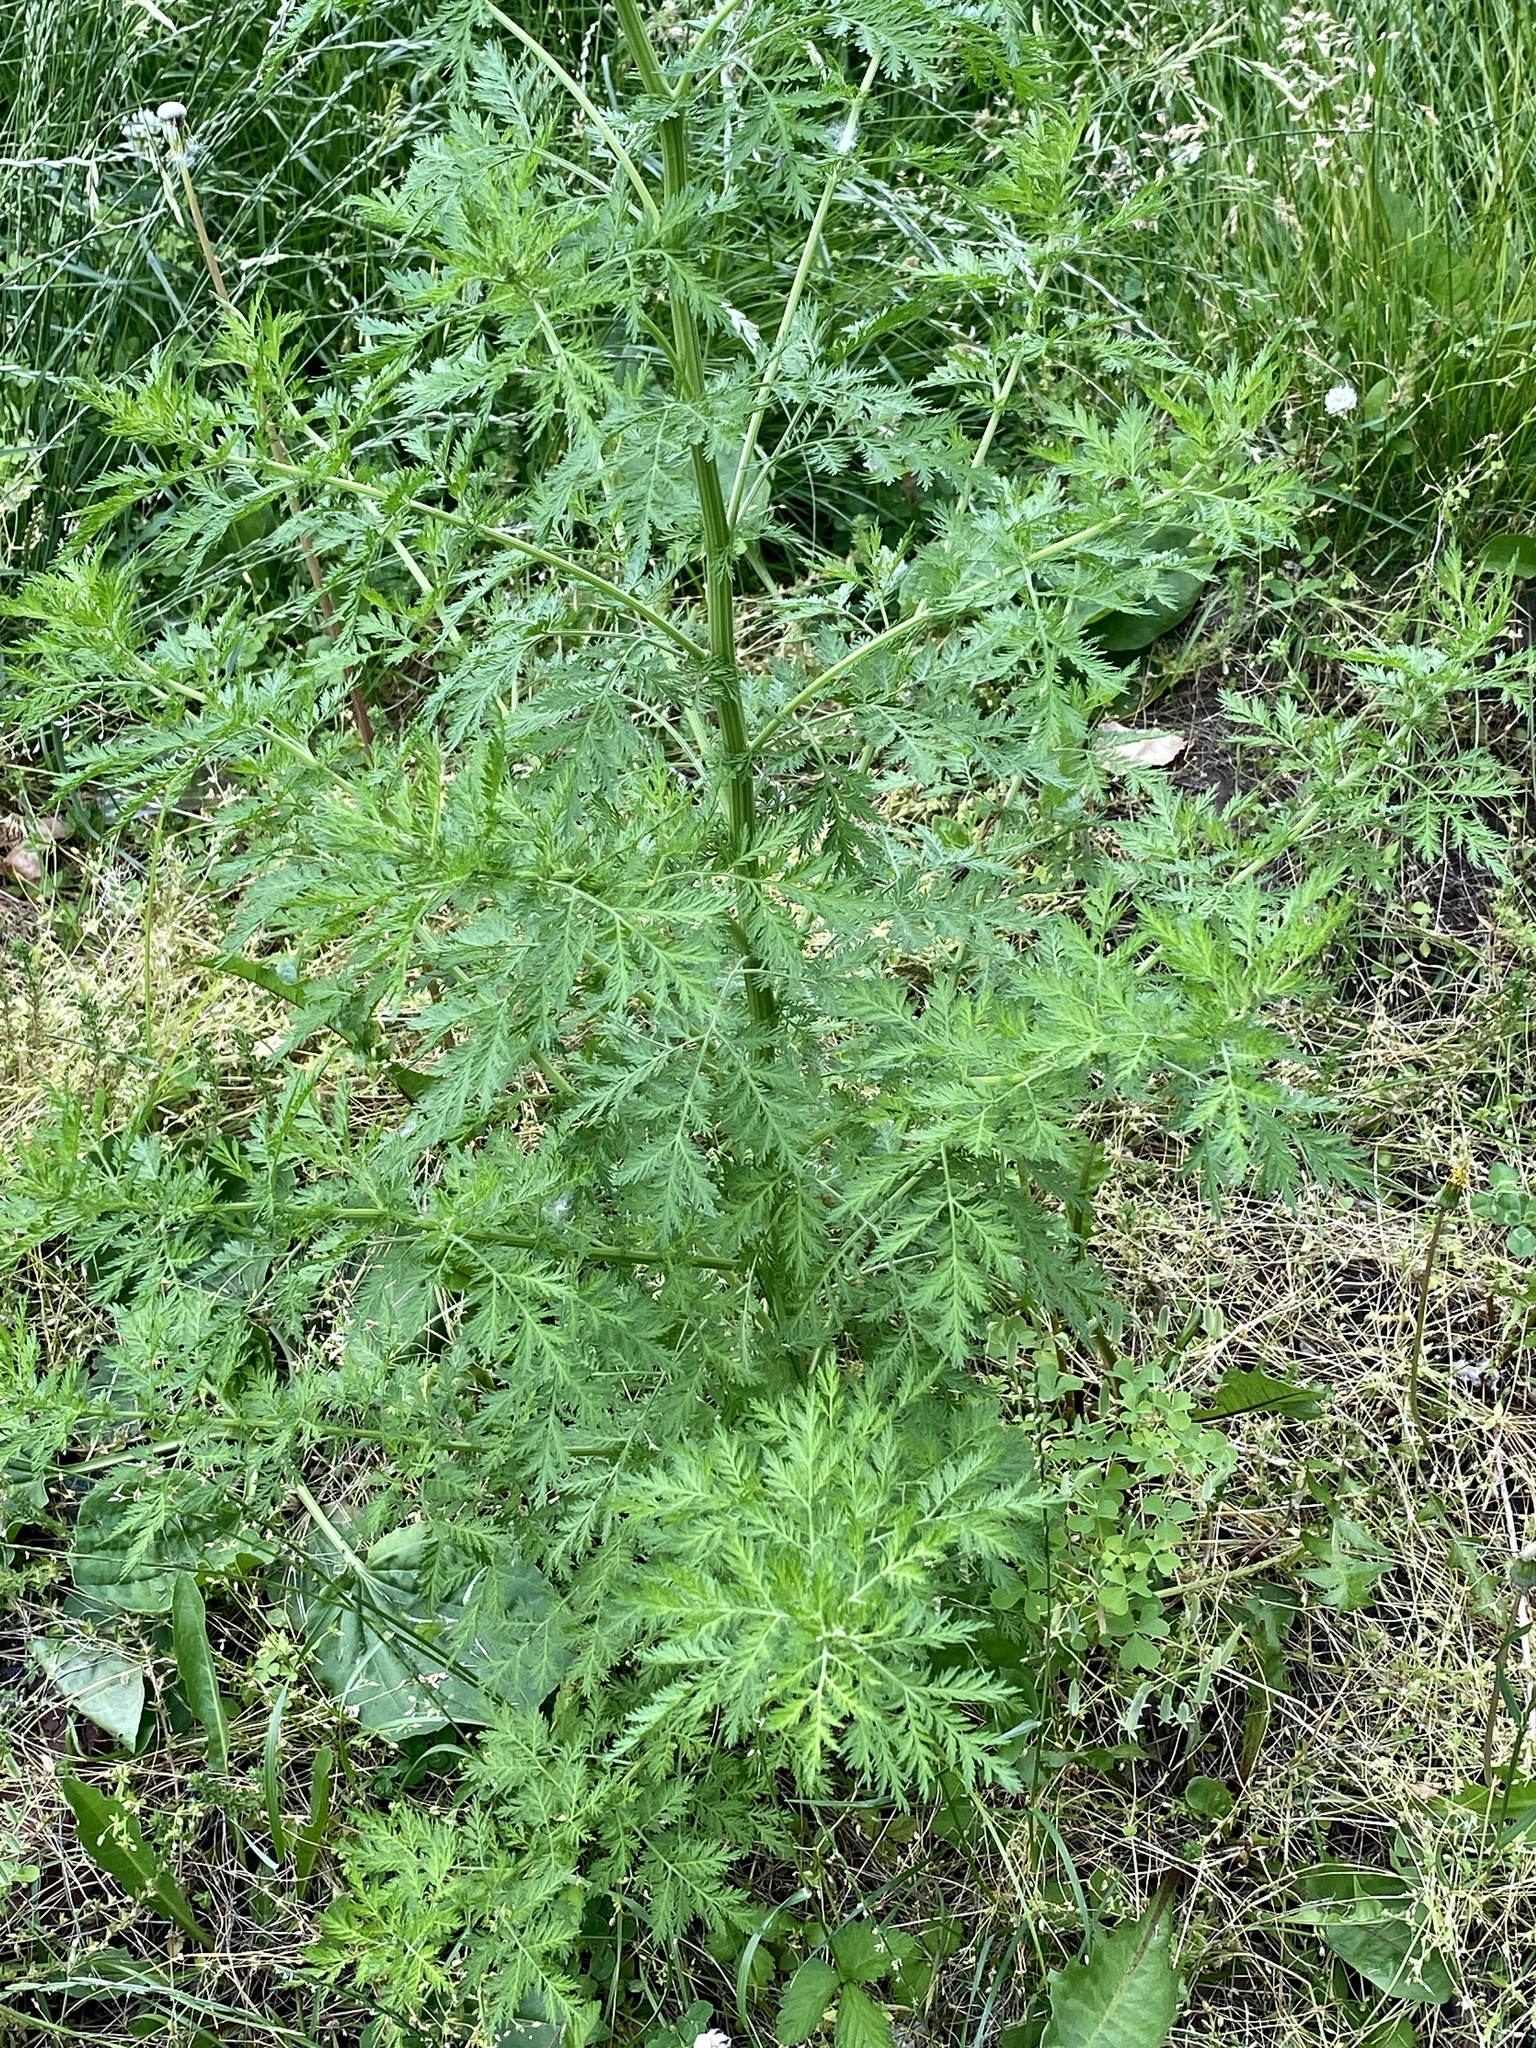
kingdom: Plantae
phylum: Tracheophyta
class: Magnoliopsida
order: Asterales
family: Asteraceae
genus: Artemisia
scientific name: Artemisia annua
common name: Sweet sagewort
